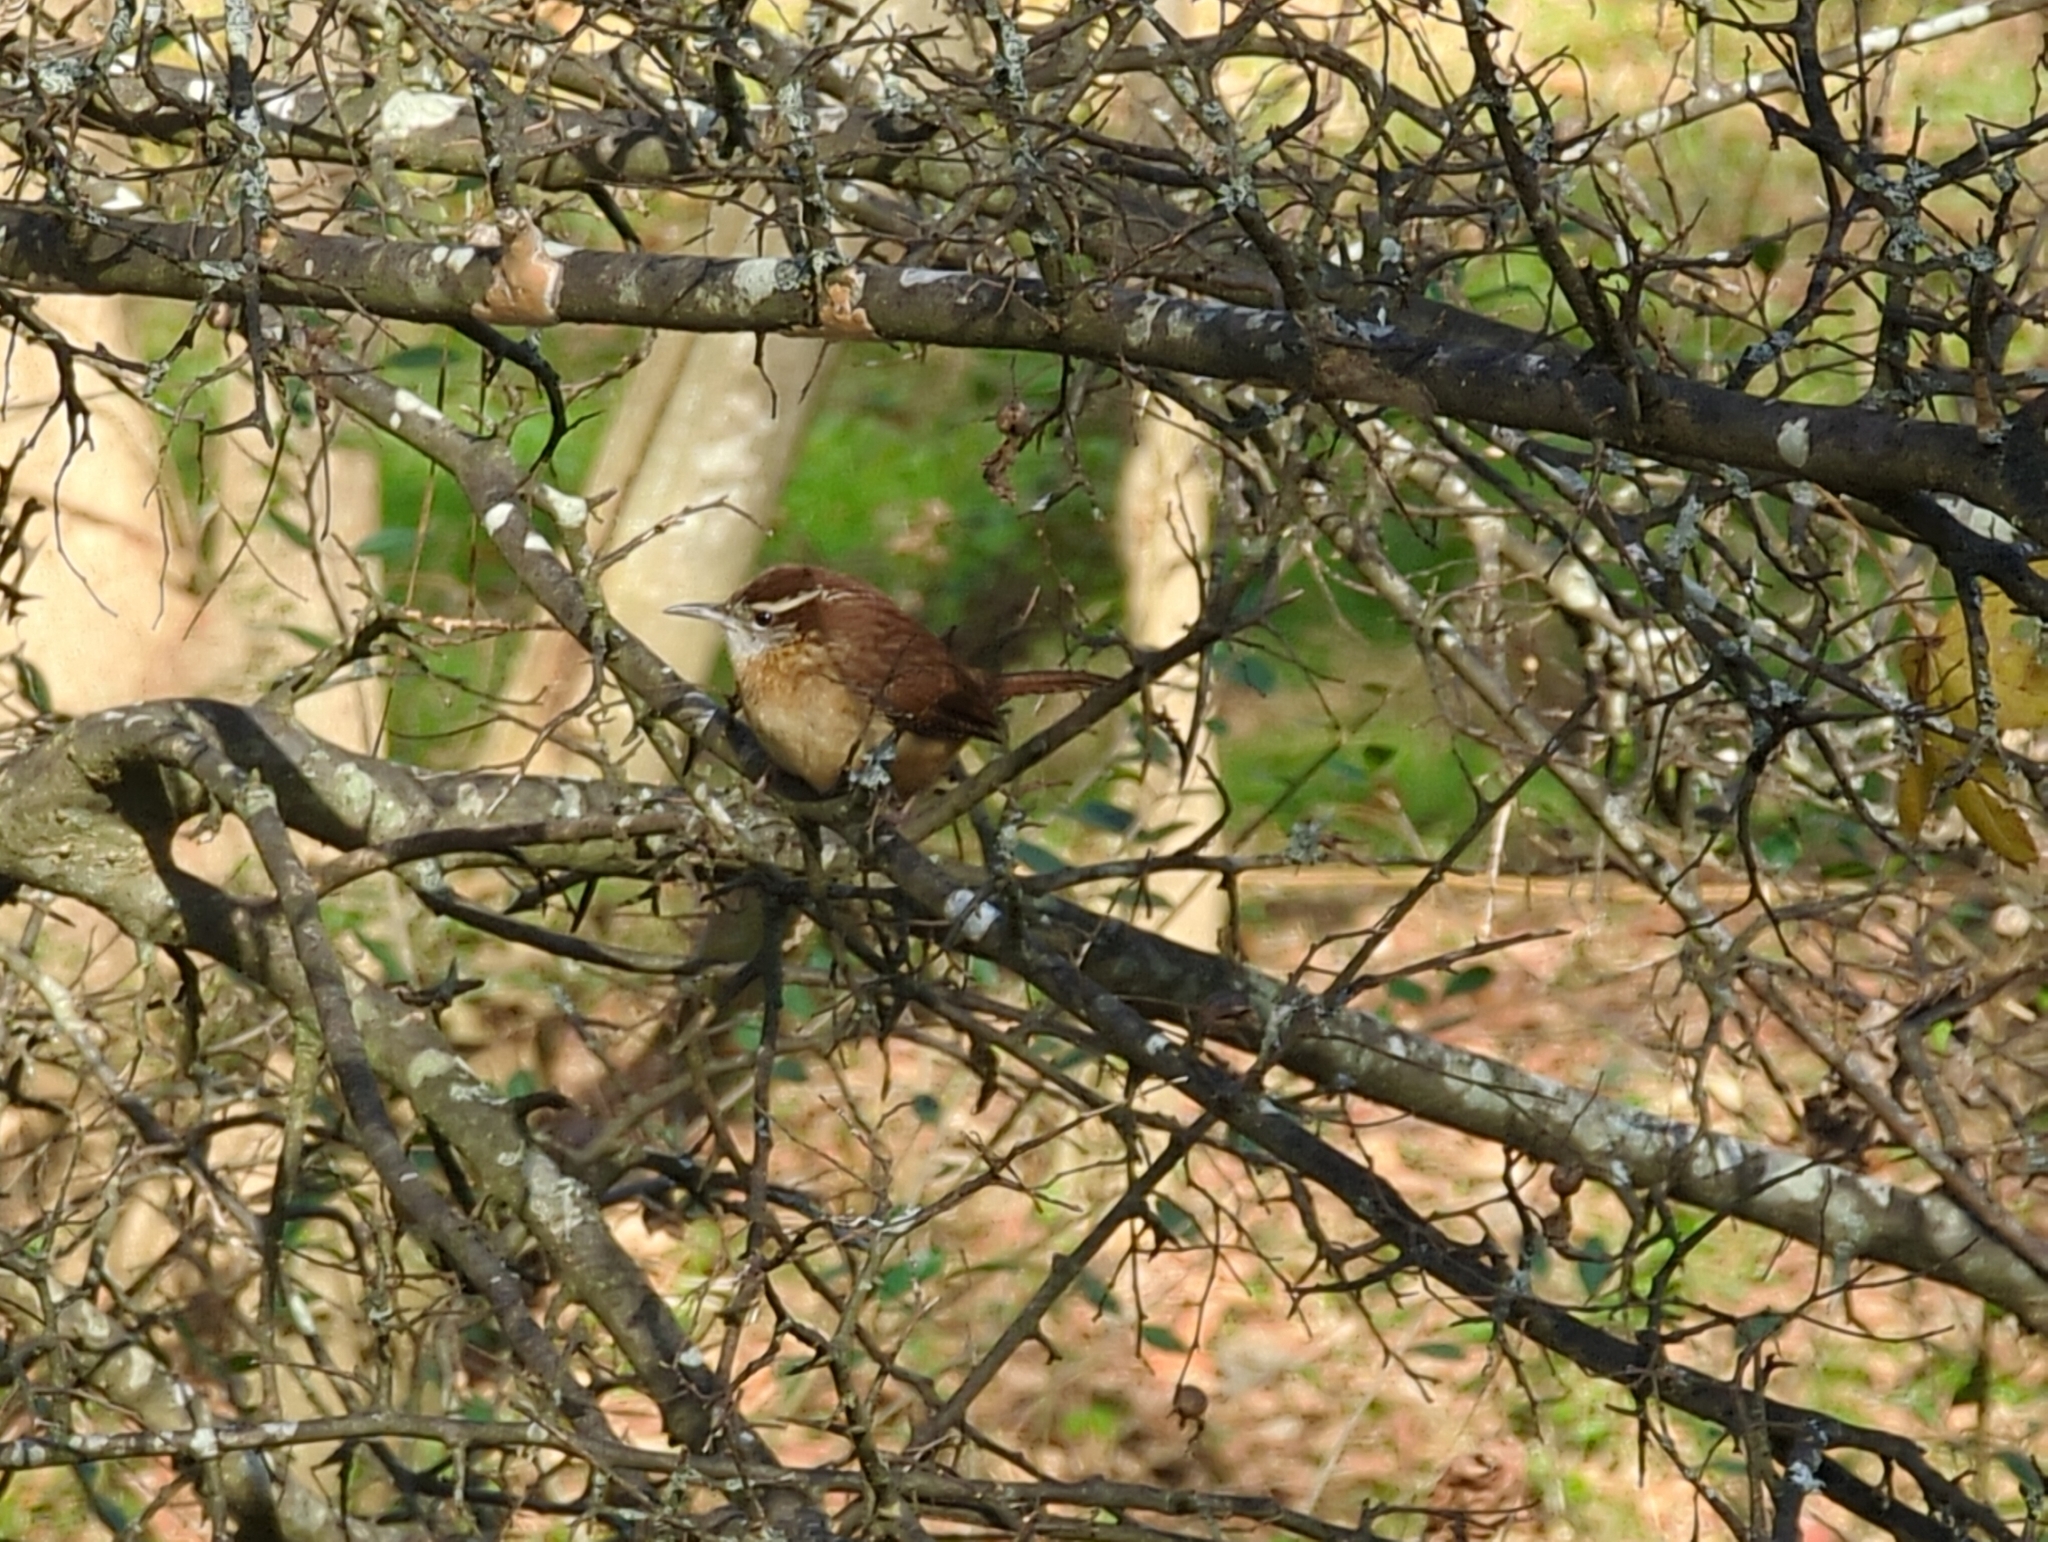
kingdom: Animalia
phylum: Chordata
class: Aves
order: Passeriformes
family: Troglodytidae
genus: Thryothorus
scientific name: Thryothorus ludovicianus
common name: Carolina wren
